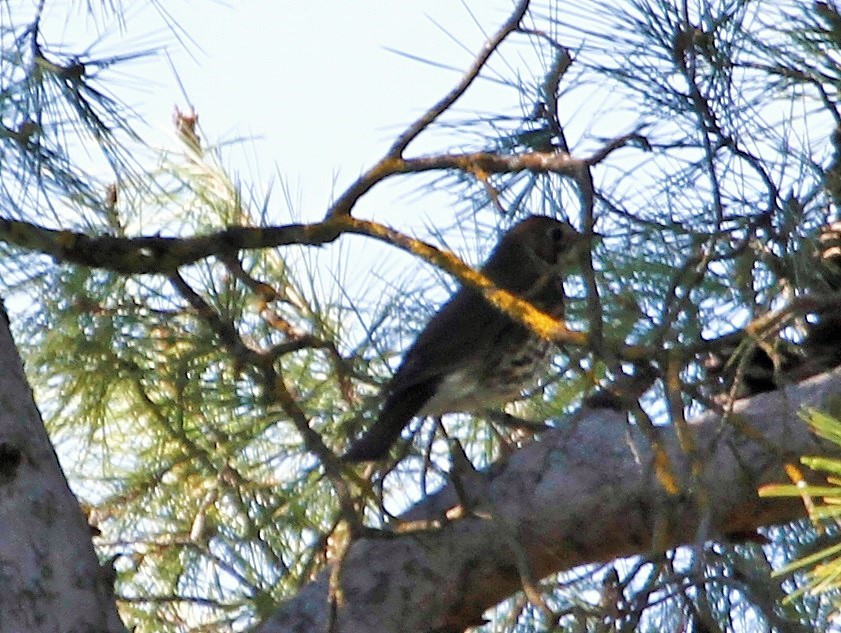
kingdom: Animalia
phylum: Chordata
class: Aves
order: Passeriformes
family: Turdidae
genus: Turdus
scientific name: Turdus philomelos
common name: Song thrush
